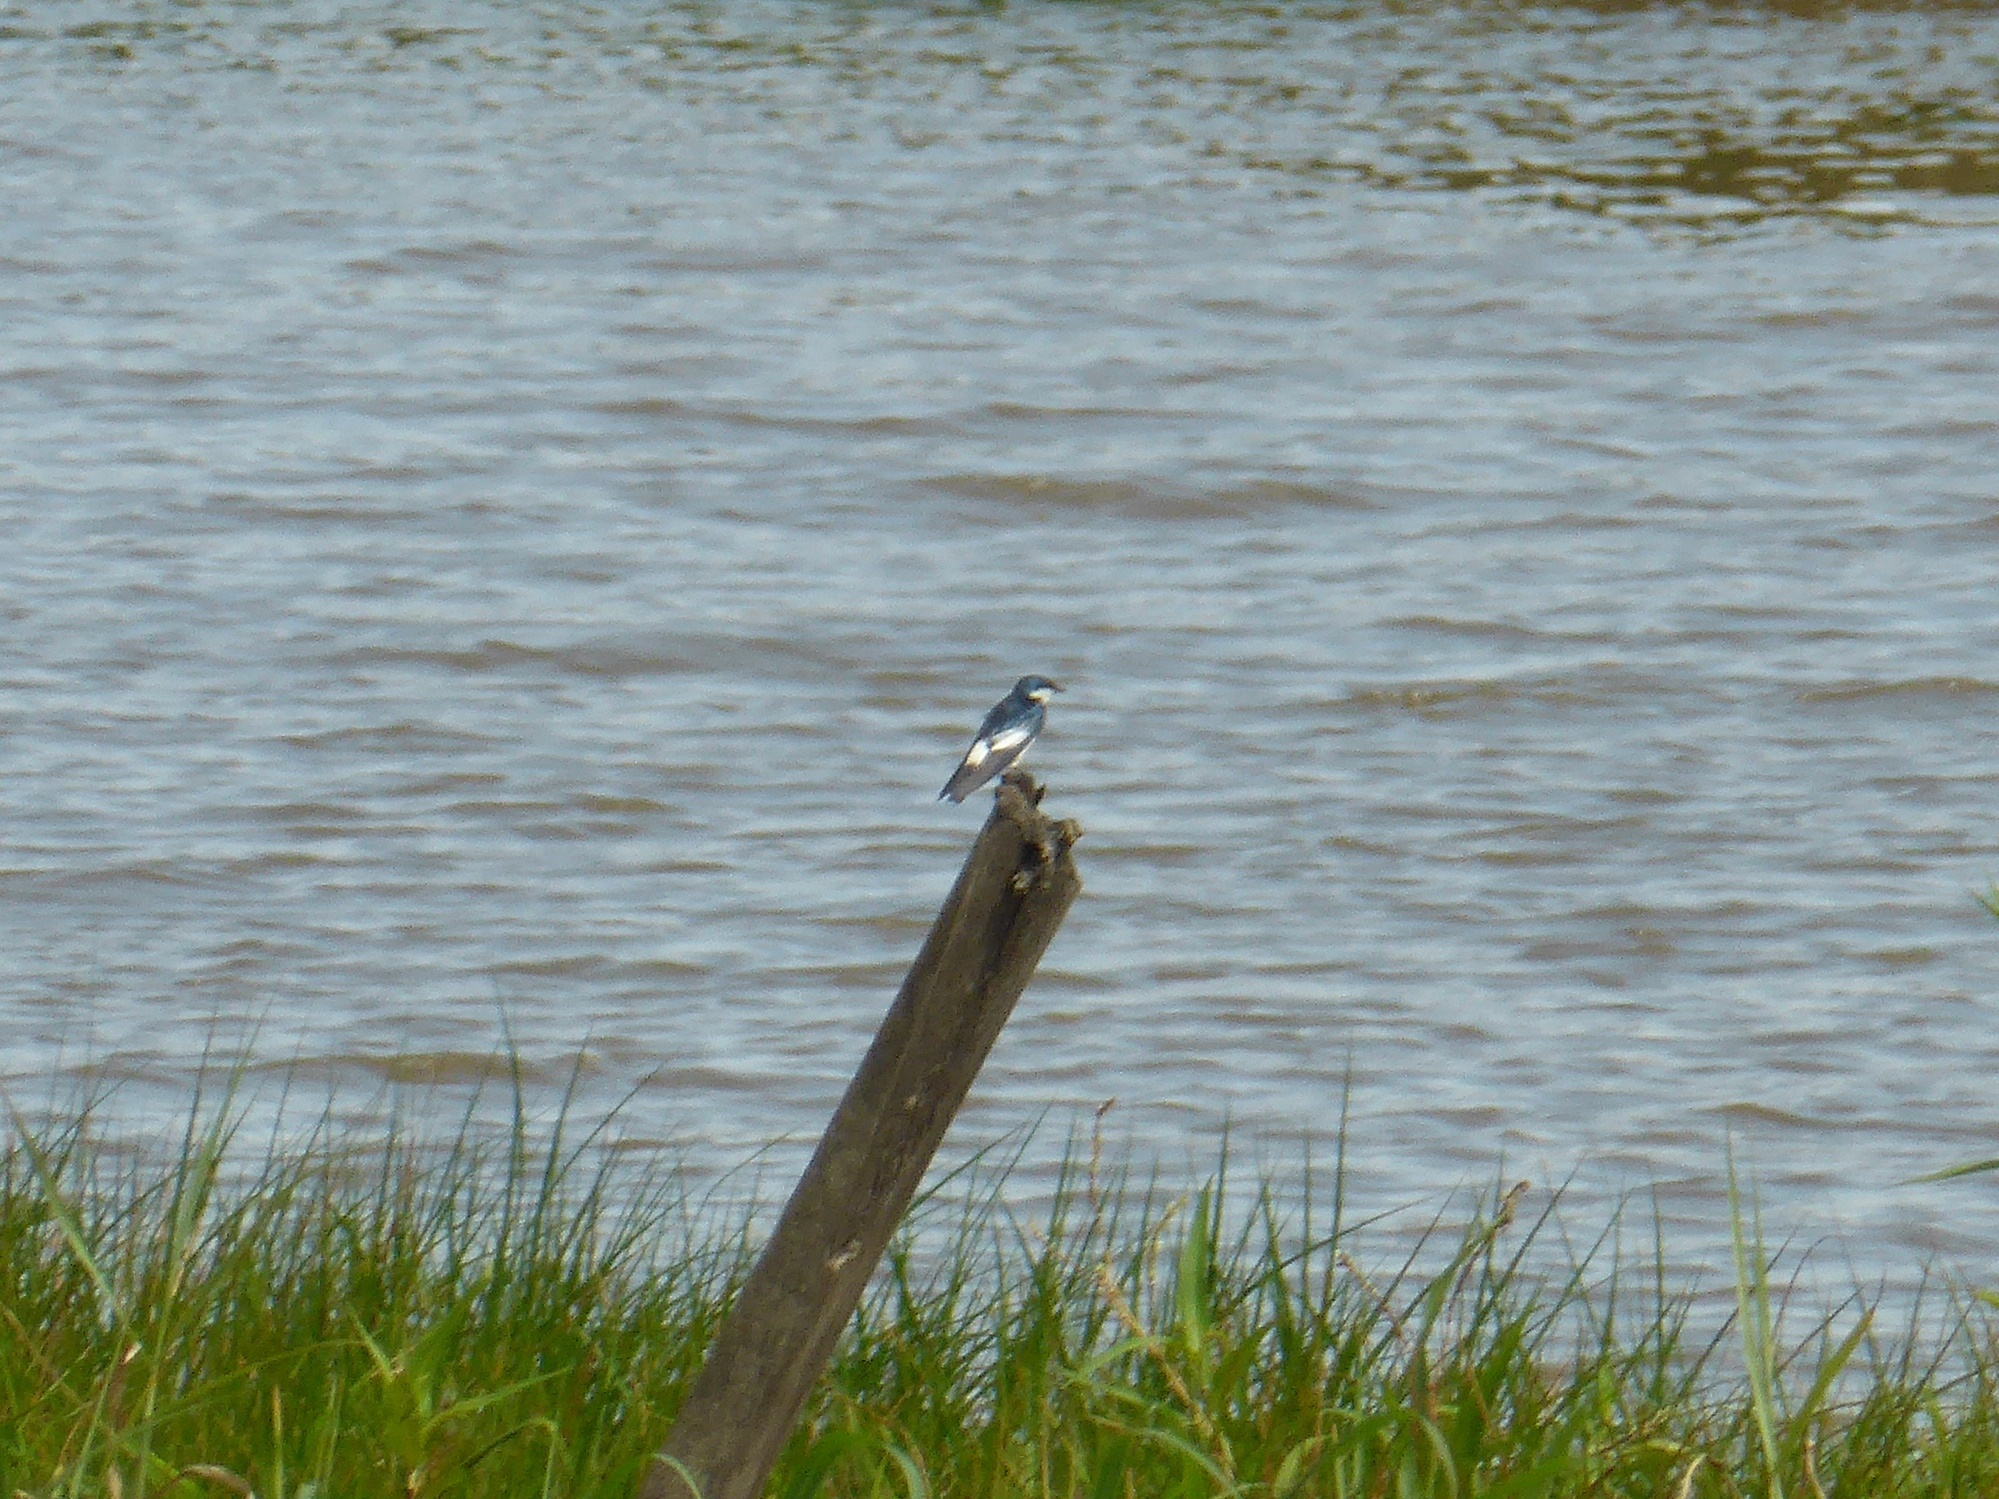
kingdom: Animalia
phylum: Chordata
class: Aves
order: Passeriformes
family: Hirundinidae
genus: Tachycineta
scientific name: Tachycineta albiventer
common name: White-winged swallow
